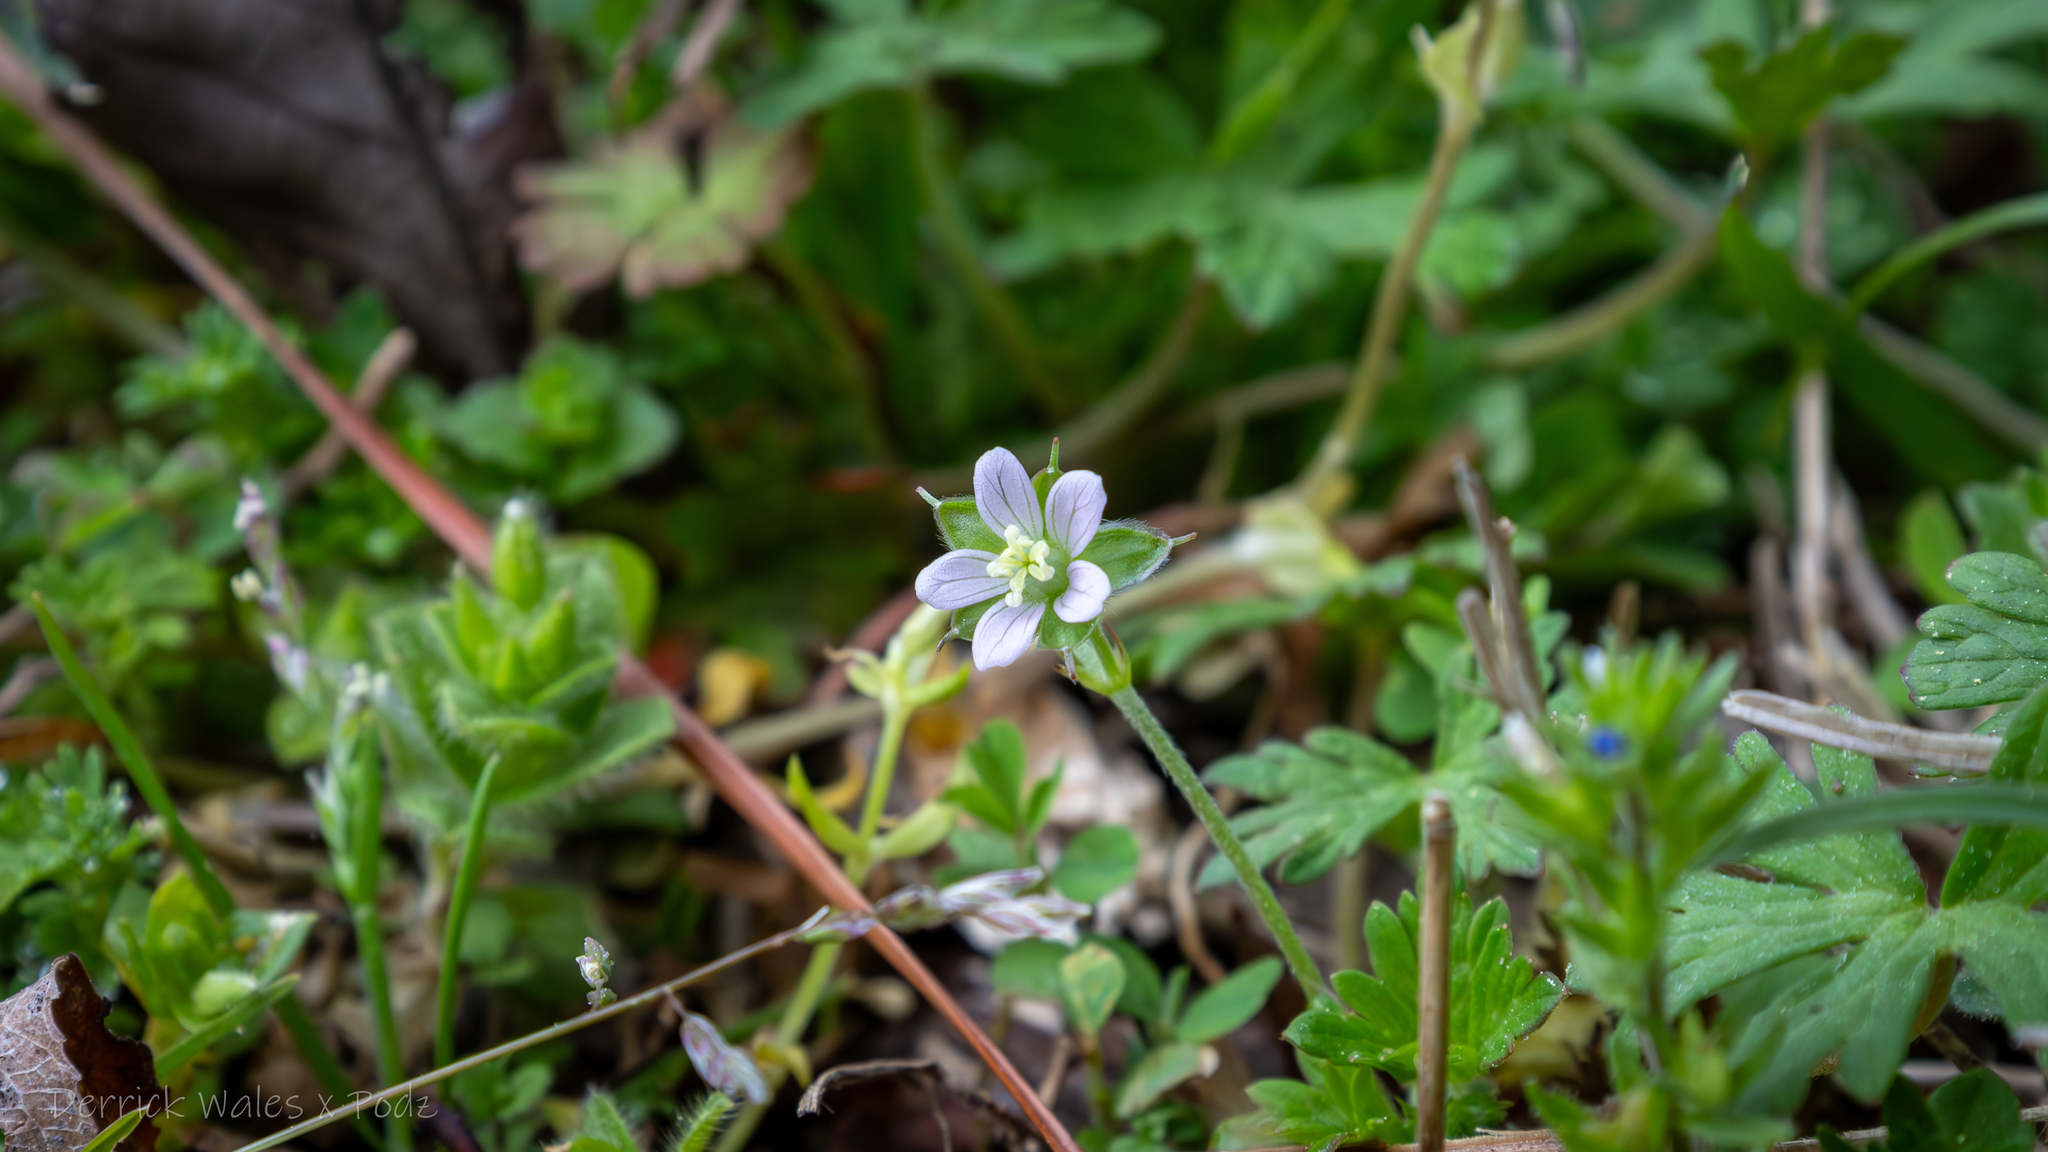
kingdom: Plantae
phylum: Tracheophyta
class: Magnoliopsida
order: Geraniales
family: Geraniaceae
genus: Geranium
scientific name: Geranium carolinianum
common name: Carolina crane's-bill
